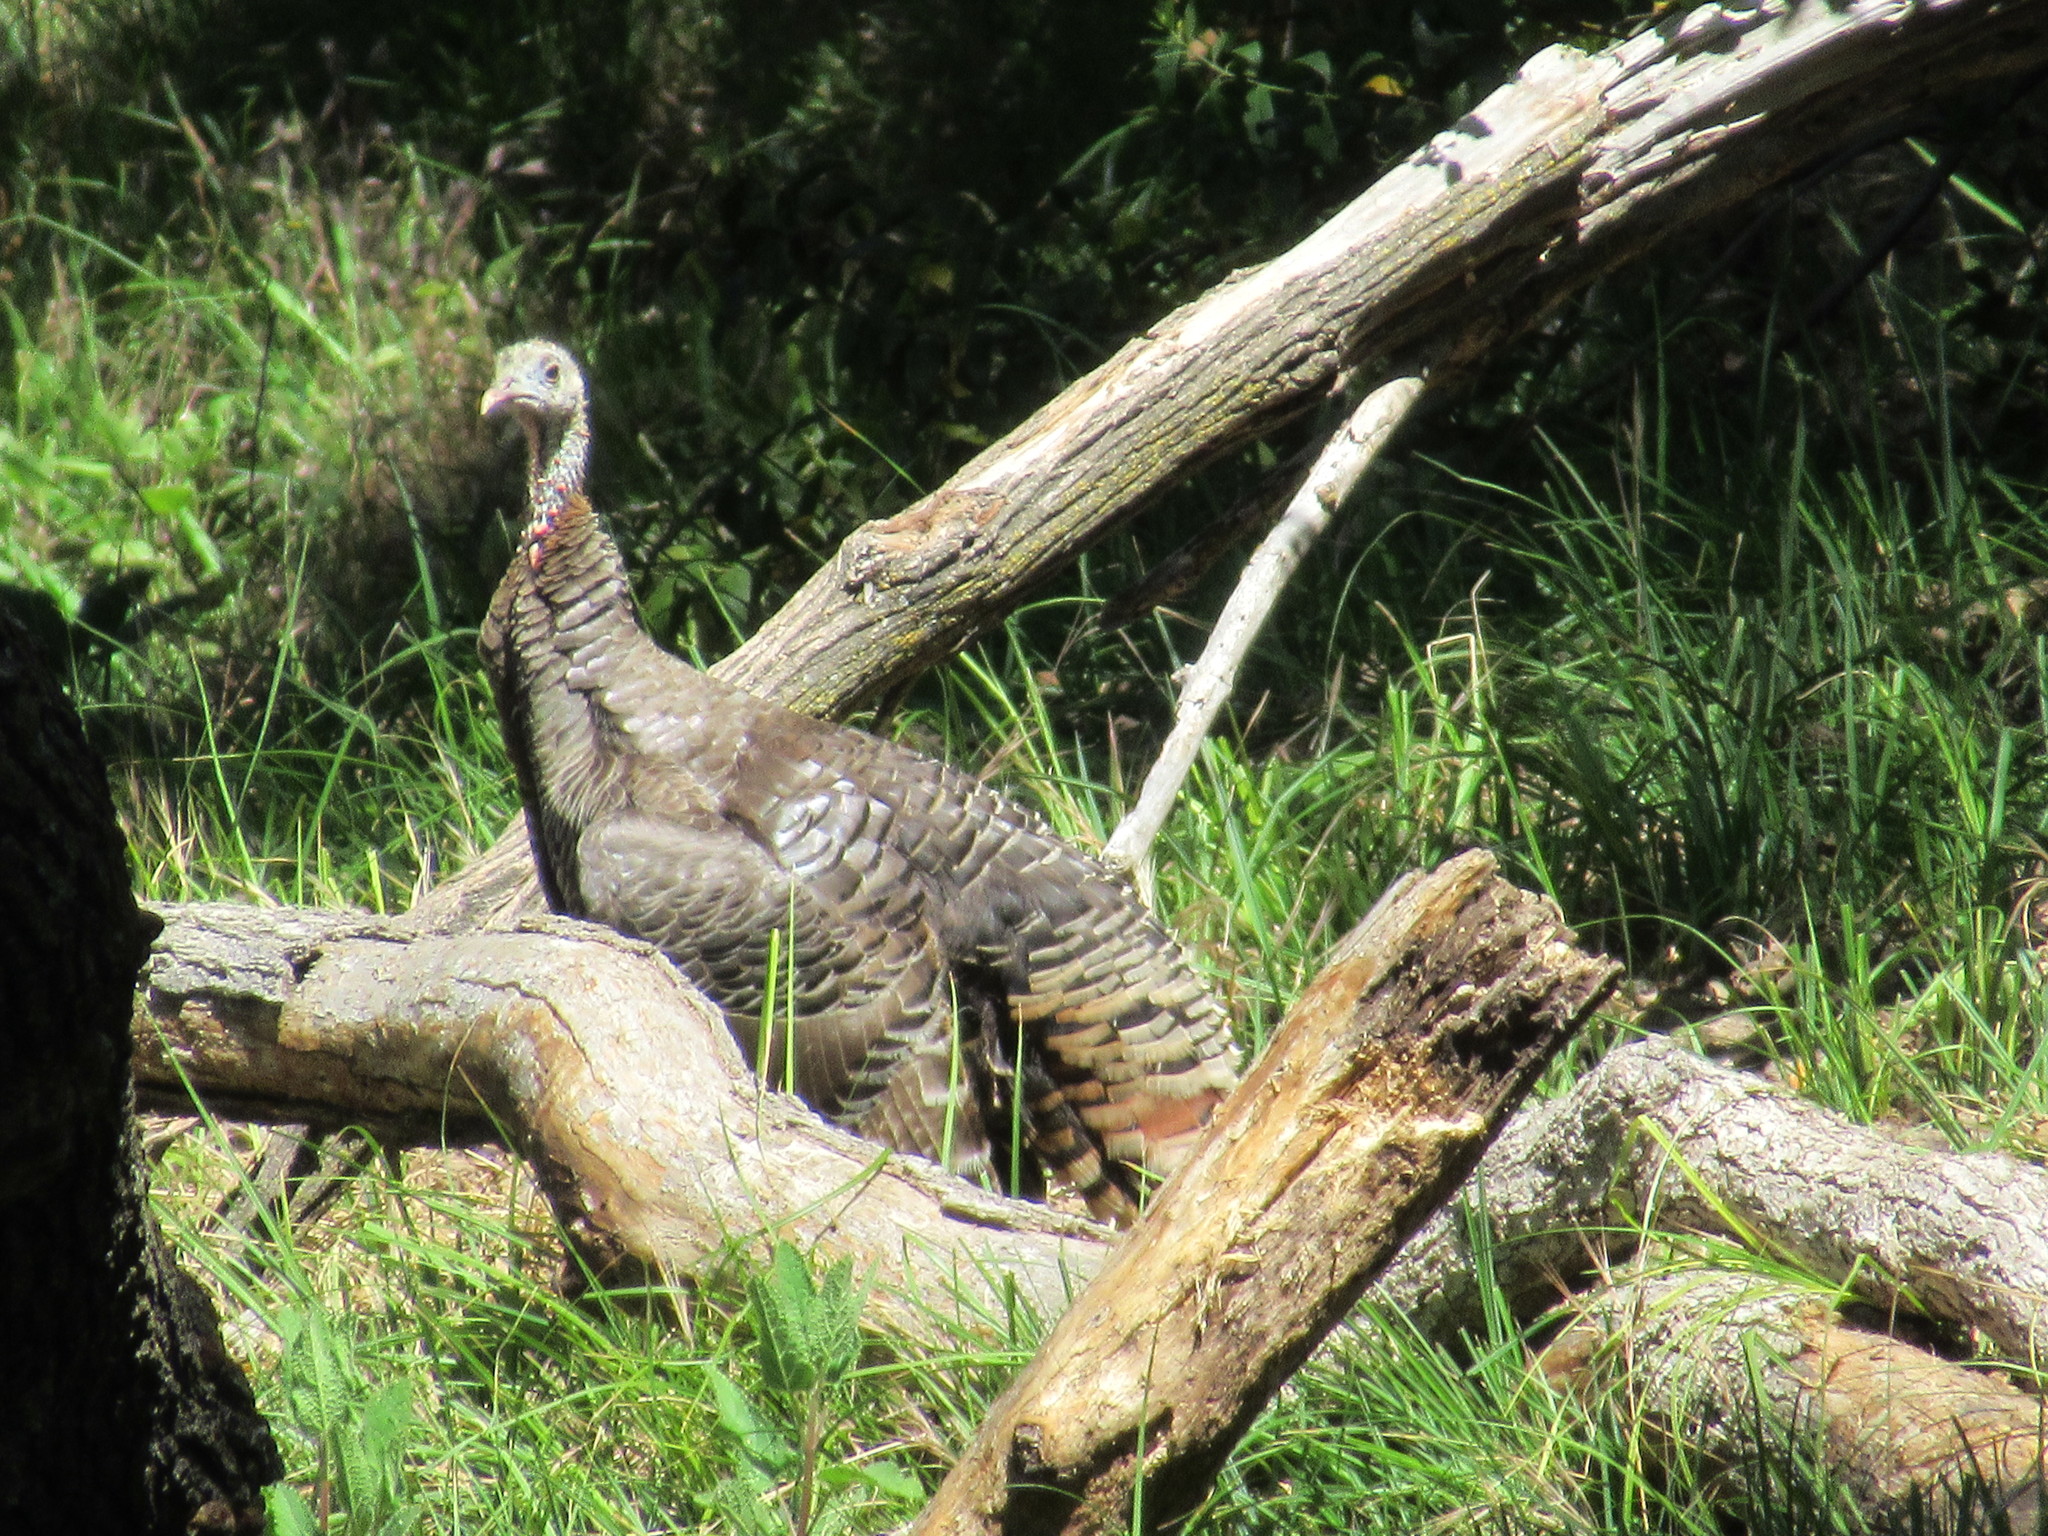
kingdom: Animalia
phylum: Chordata
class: Aves
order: Galliformes
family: Phasianidae
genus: Meleagris
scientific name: Meleagris gallopavo
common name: Wild turkey
